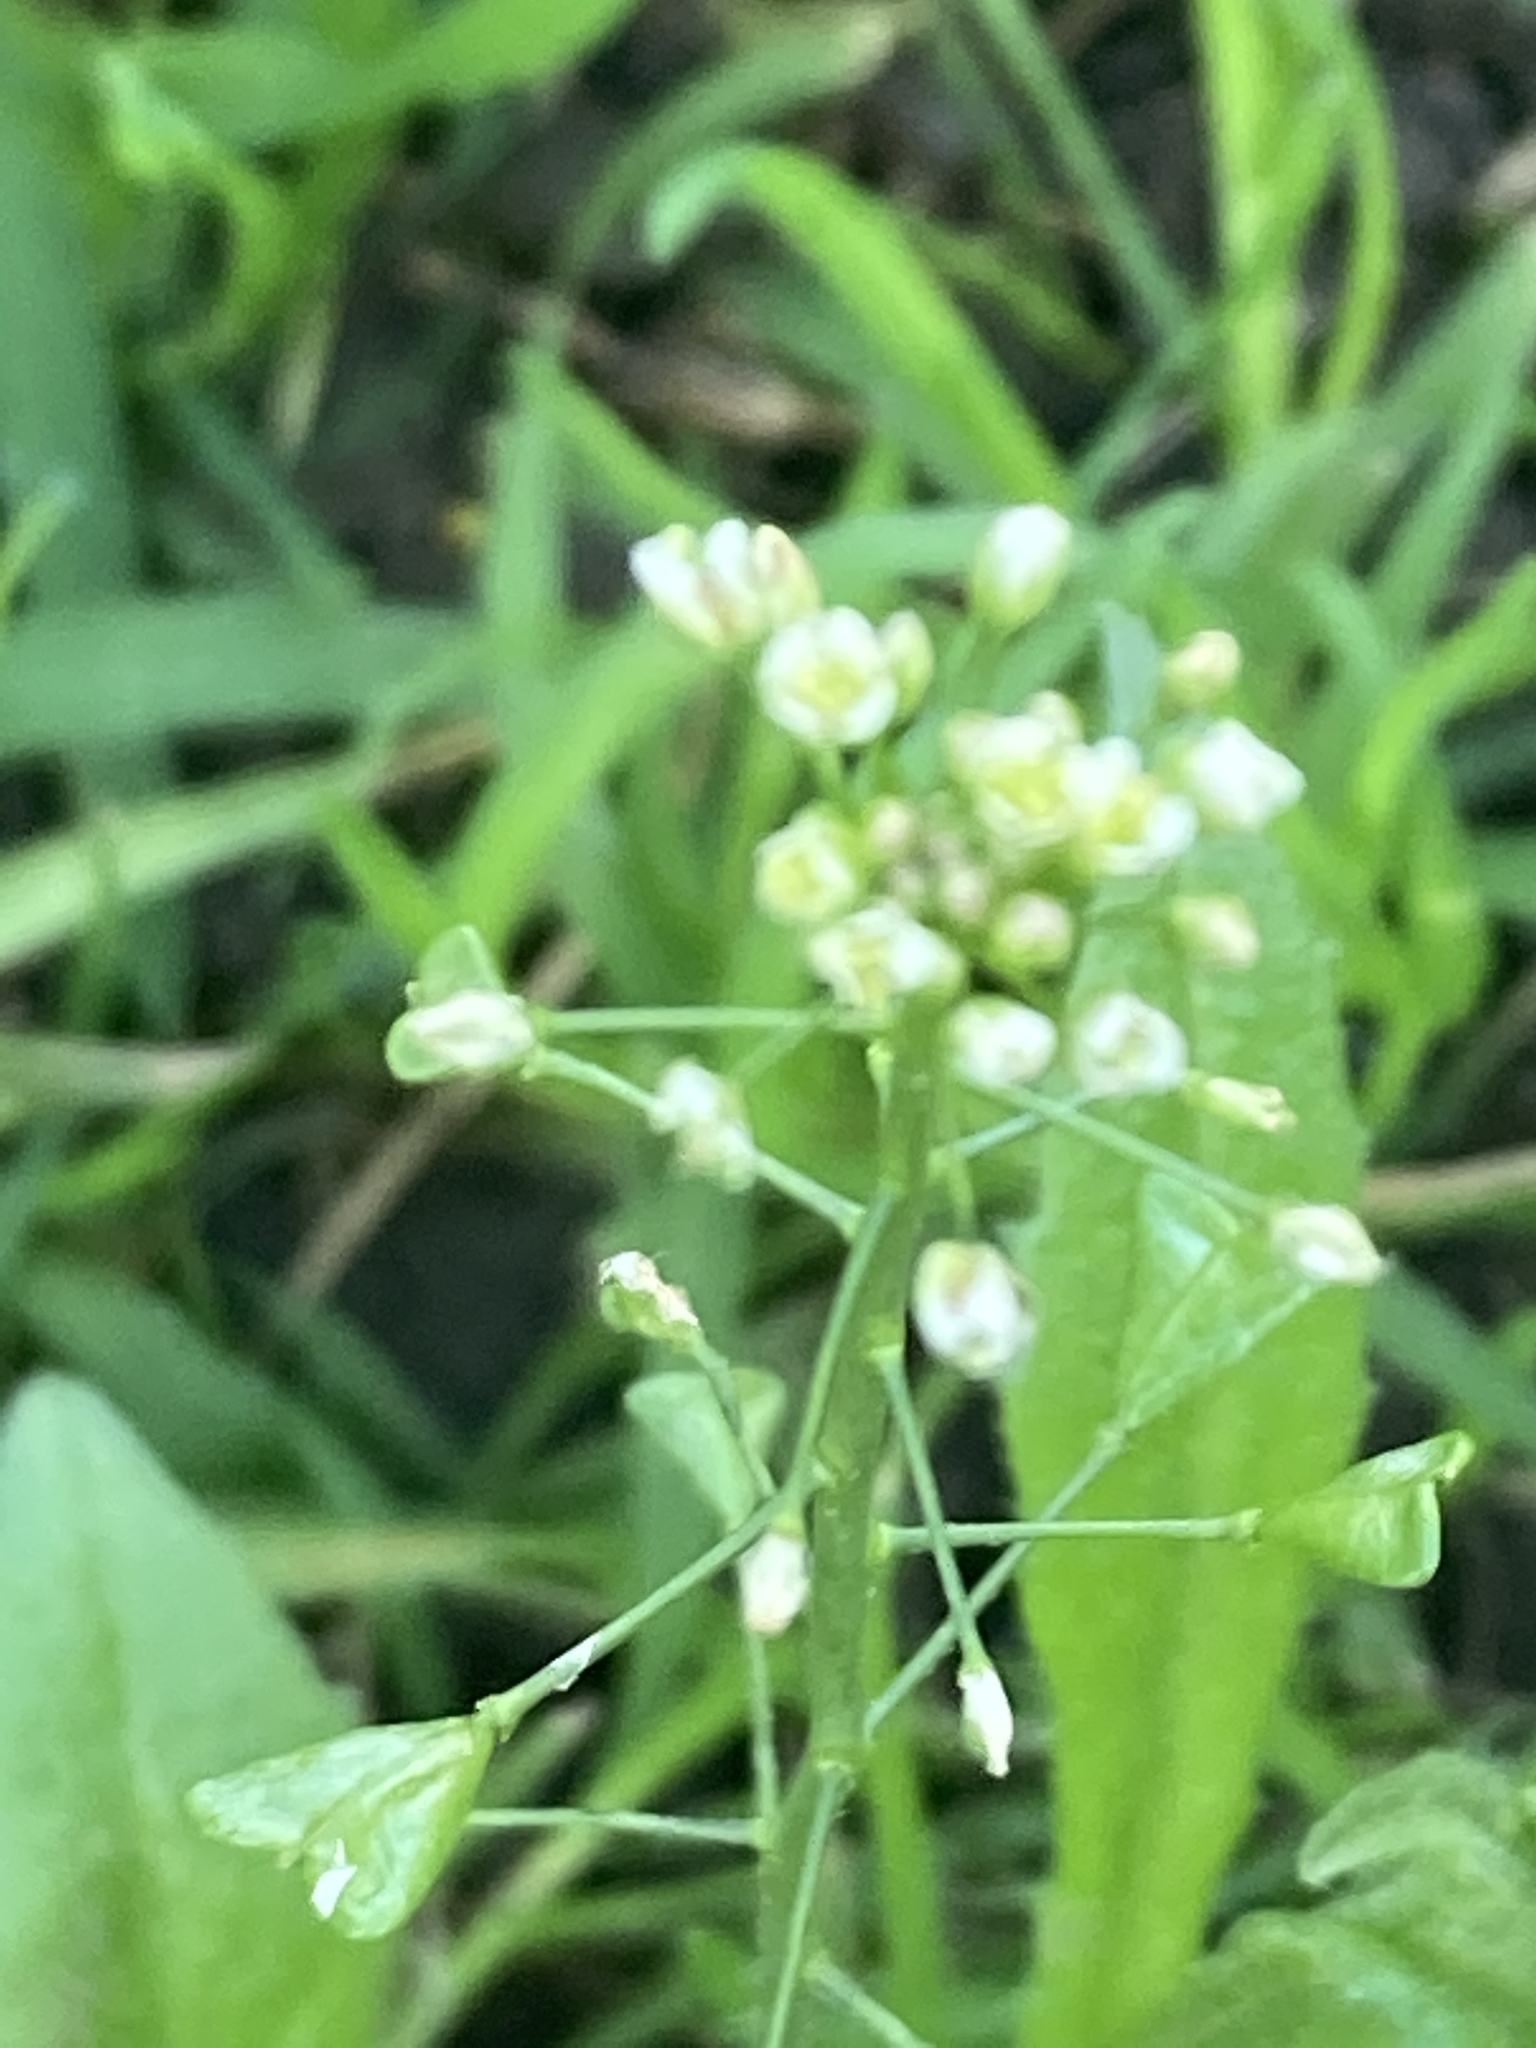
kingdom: Plantae
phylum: Tracheophyta
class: Magnoliopsida
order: Brassicales
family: Brassicaceae
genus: Capsella
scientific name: Capsella bursa-pastoris
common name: Shepherd's purse
